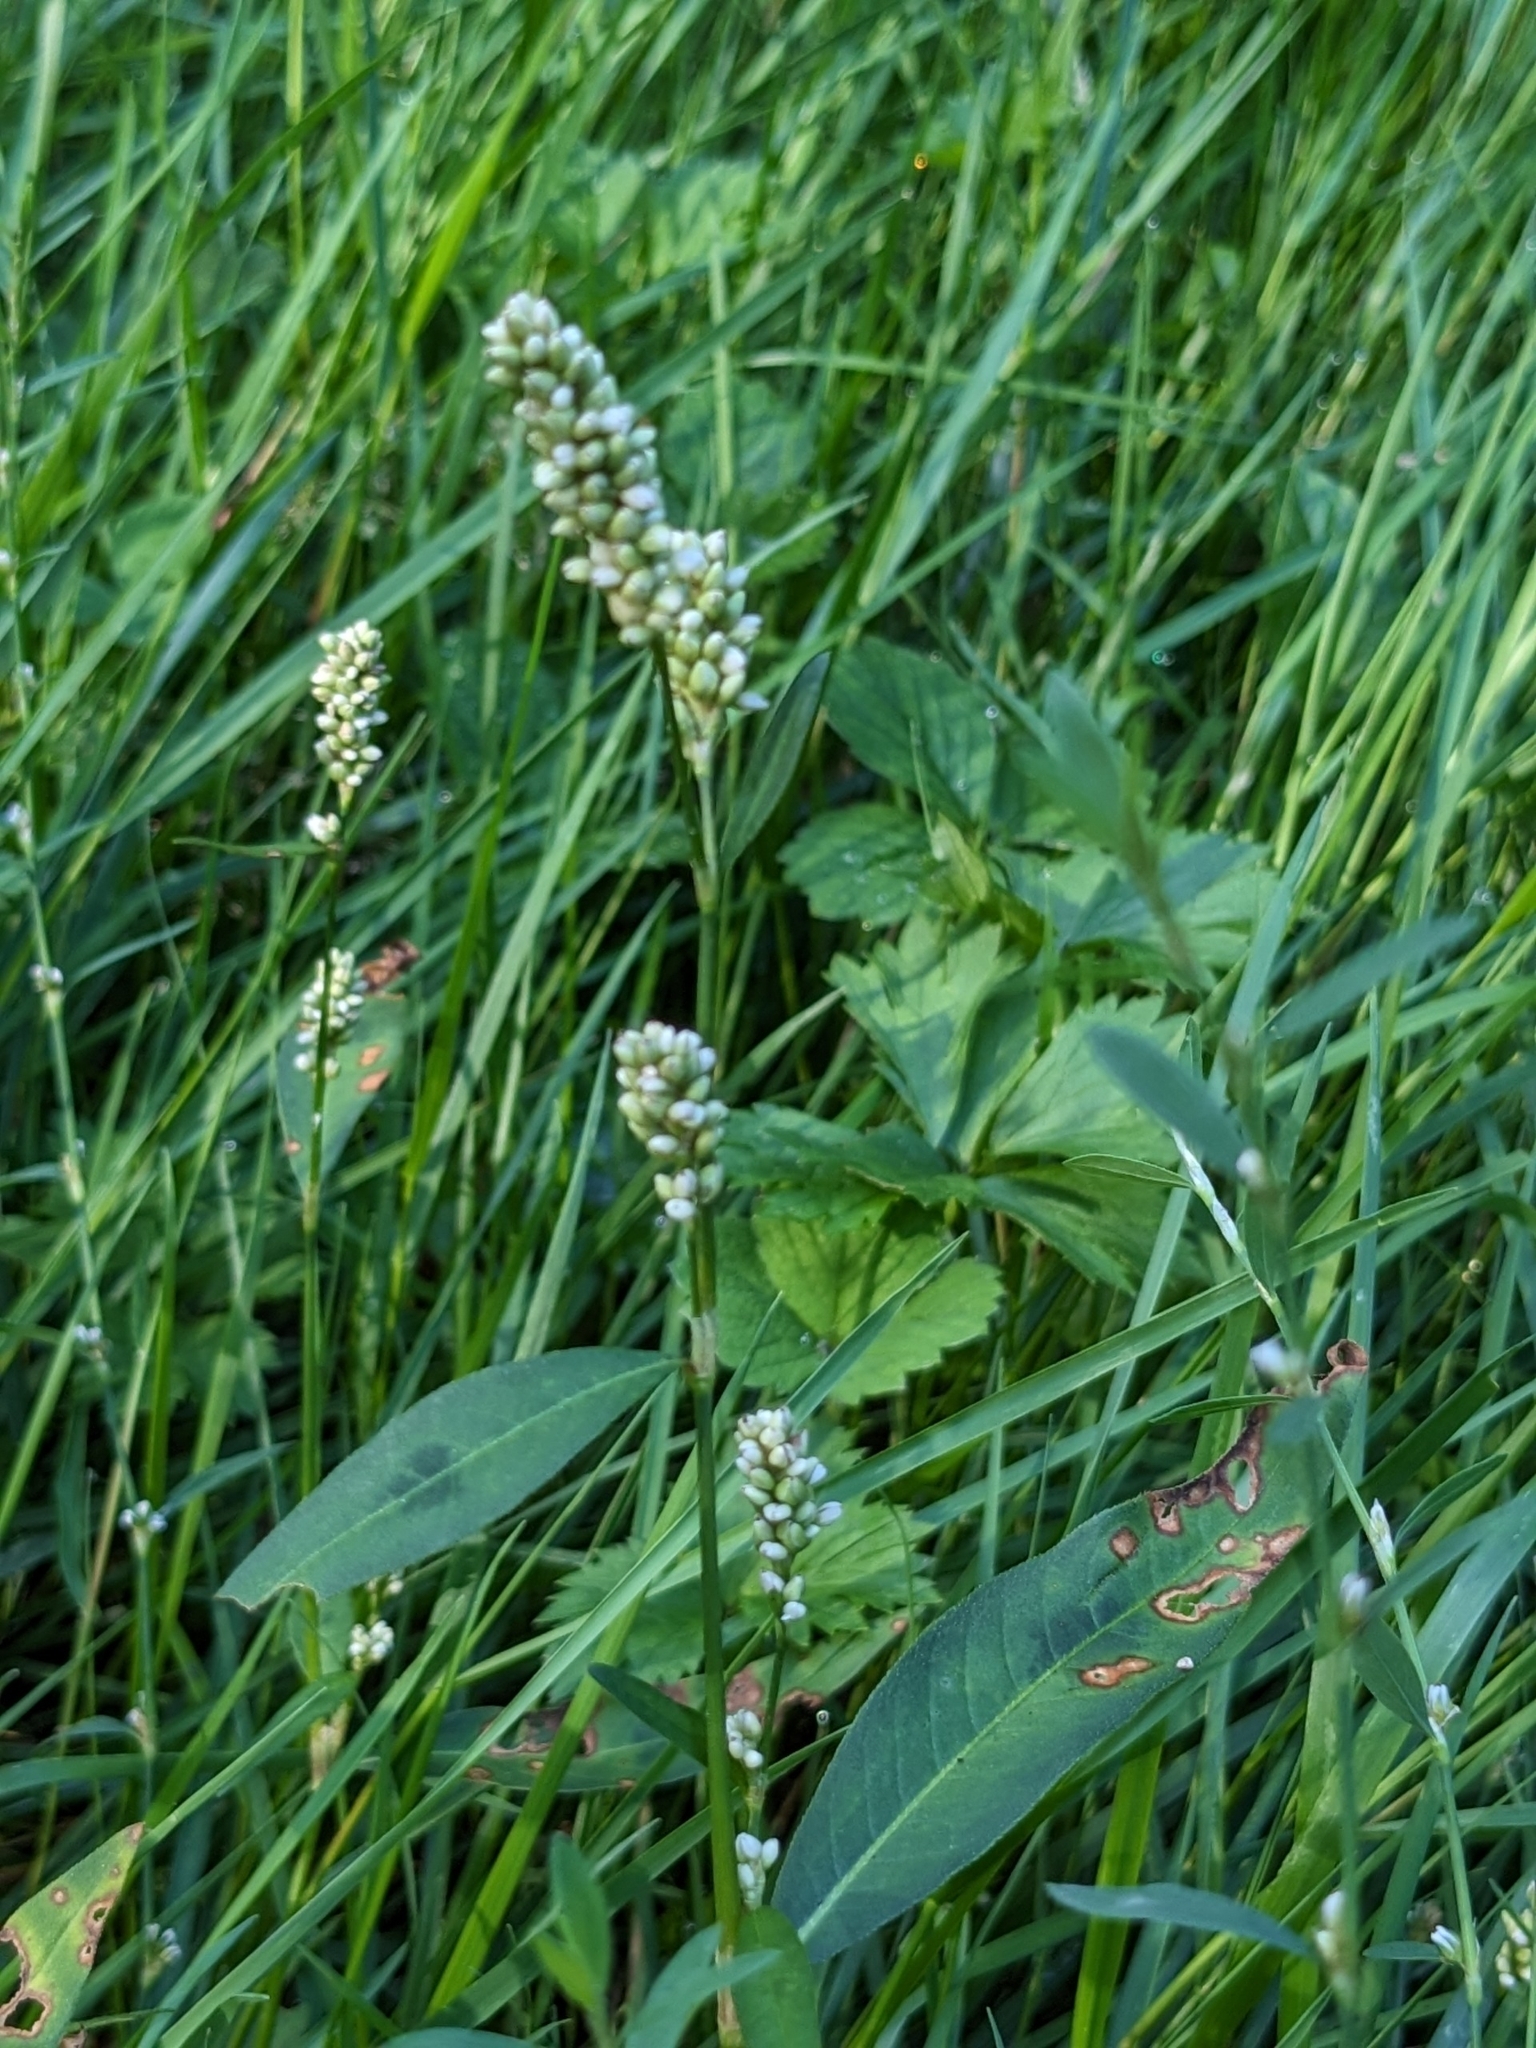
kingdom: Plantae
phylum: Tracheophyta
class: Magnoliopsida
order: Caryophyllales
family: Polygonaceae
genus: Persicaria
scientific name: Persicaria maculosa
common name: Redshank
